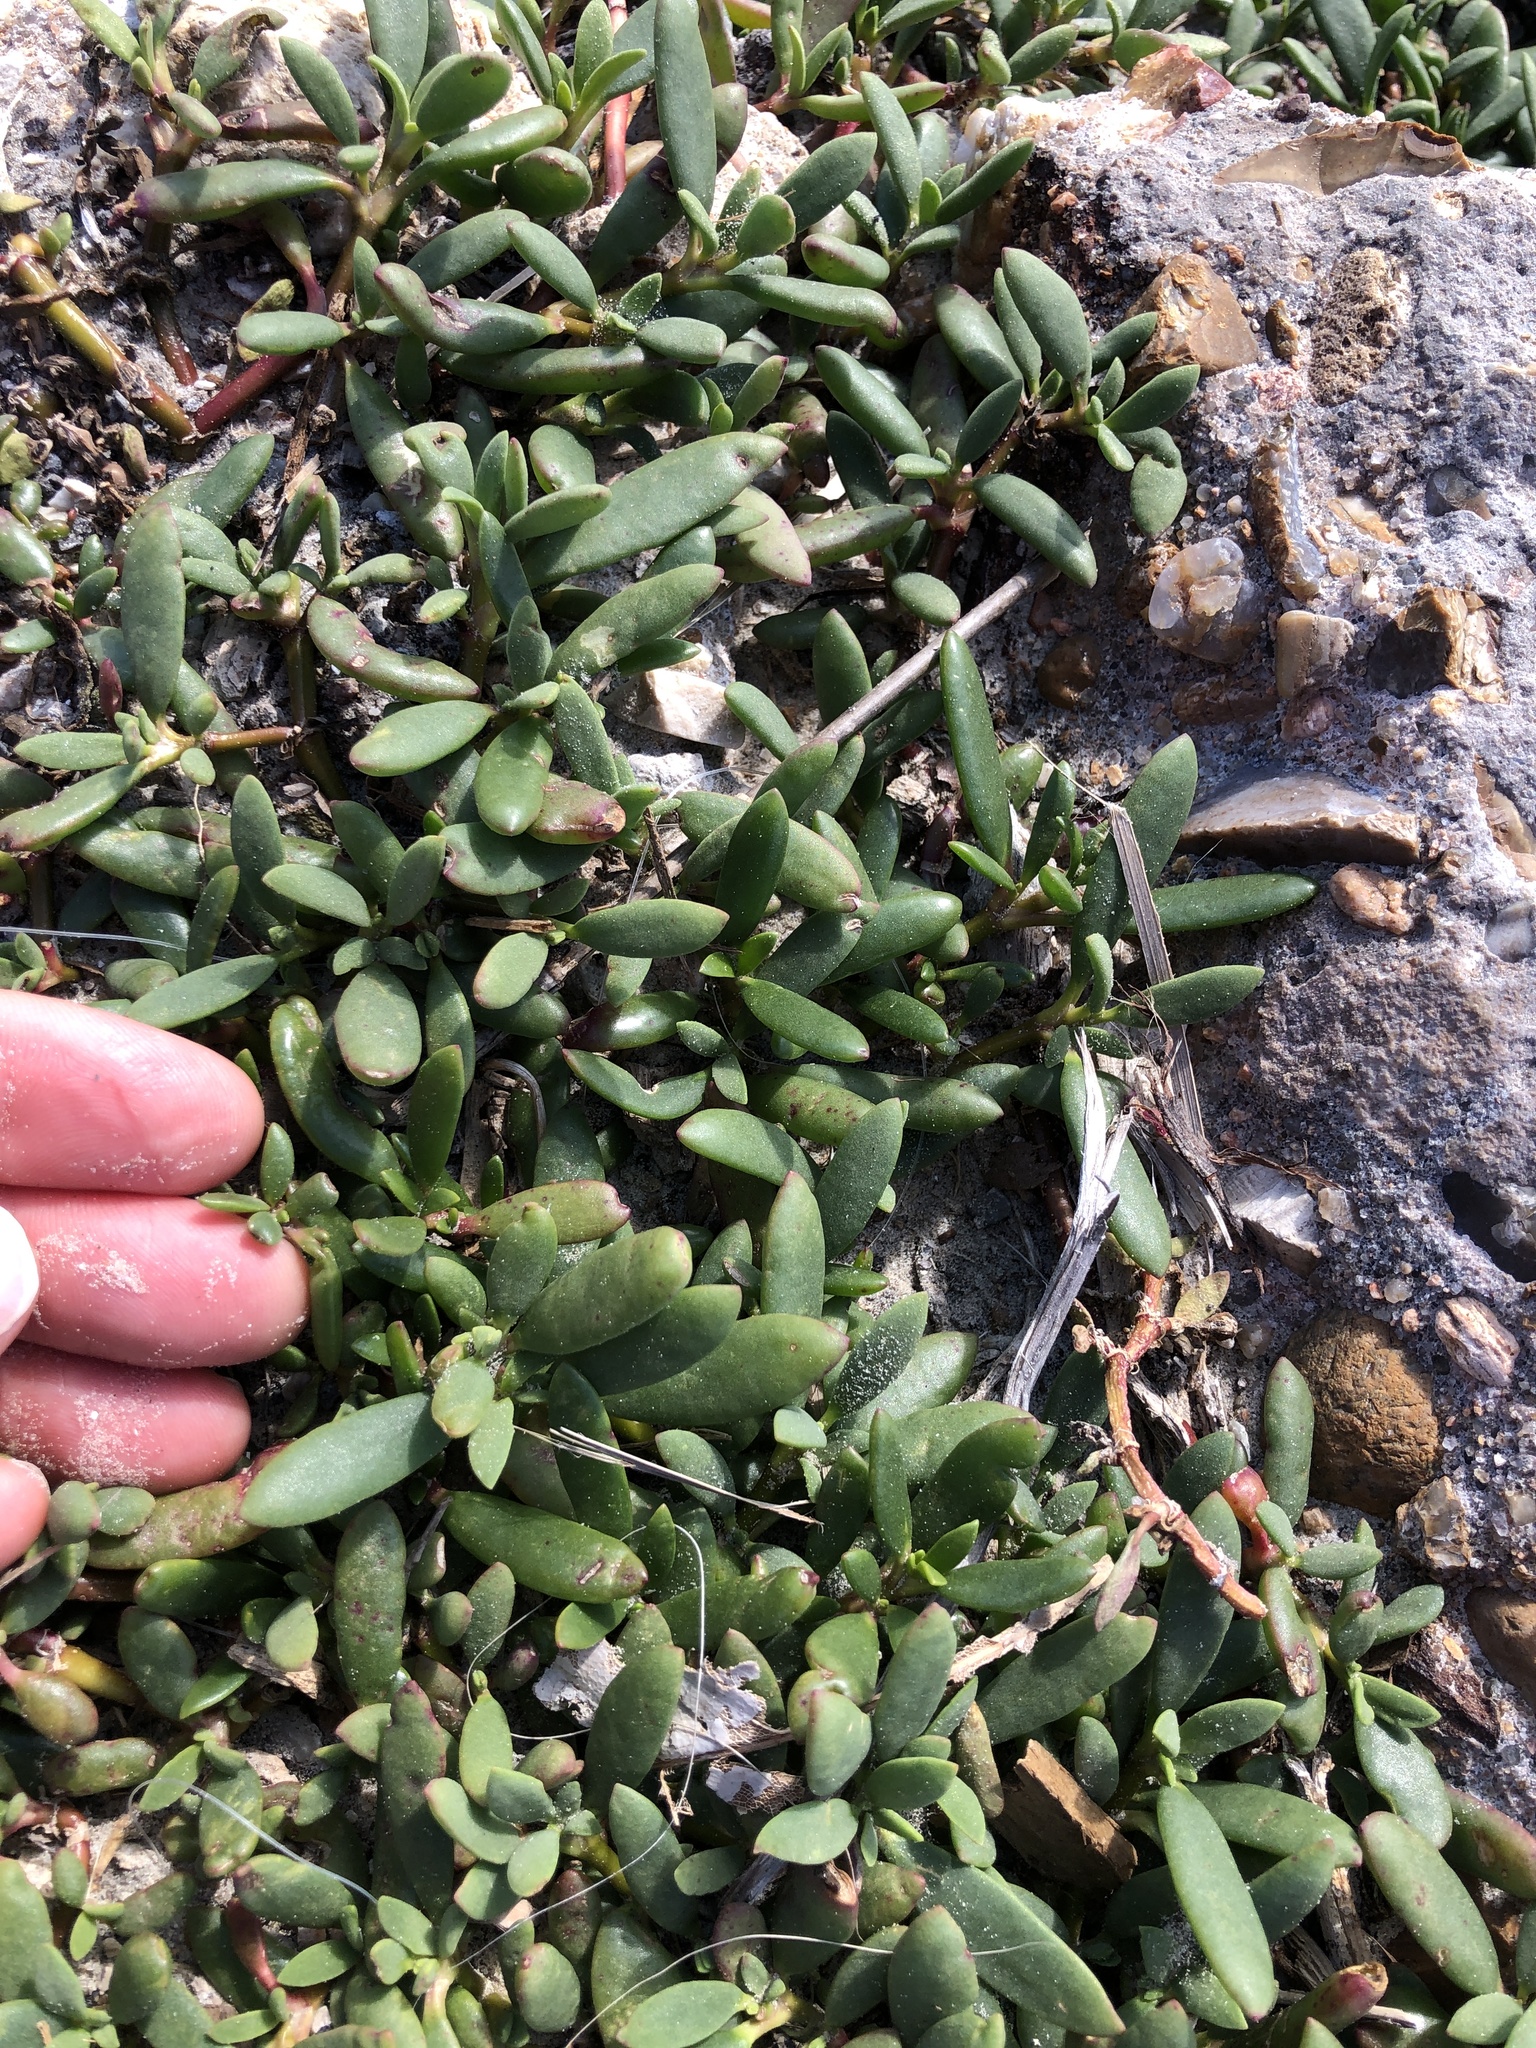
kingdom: Plantae
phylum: Tracheophyta
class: Magnoliopsida
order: Caryophyllales
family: Aizoaceae
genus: Sesuvium
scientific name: Sesuvium portulacastrum
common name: Sea-purslane
